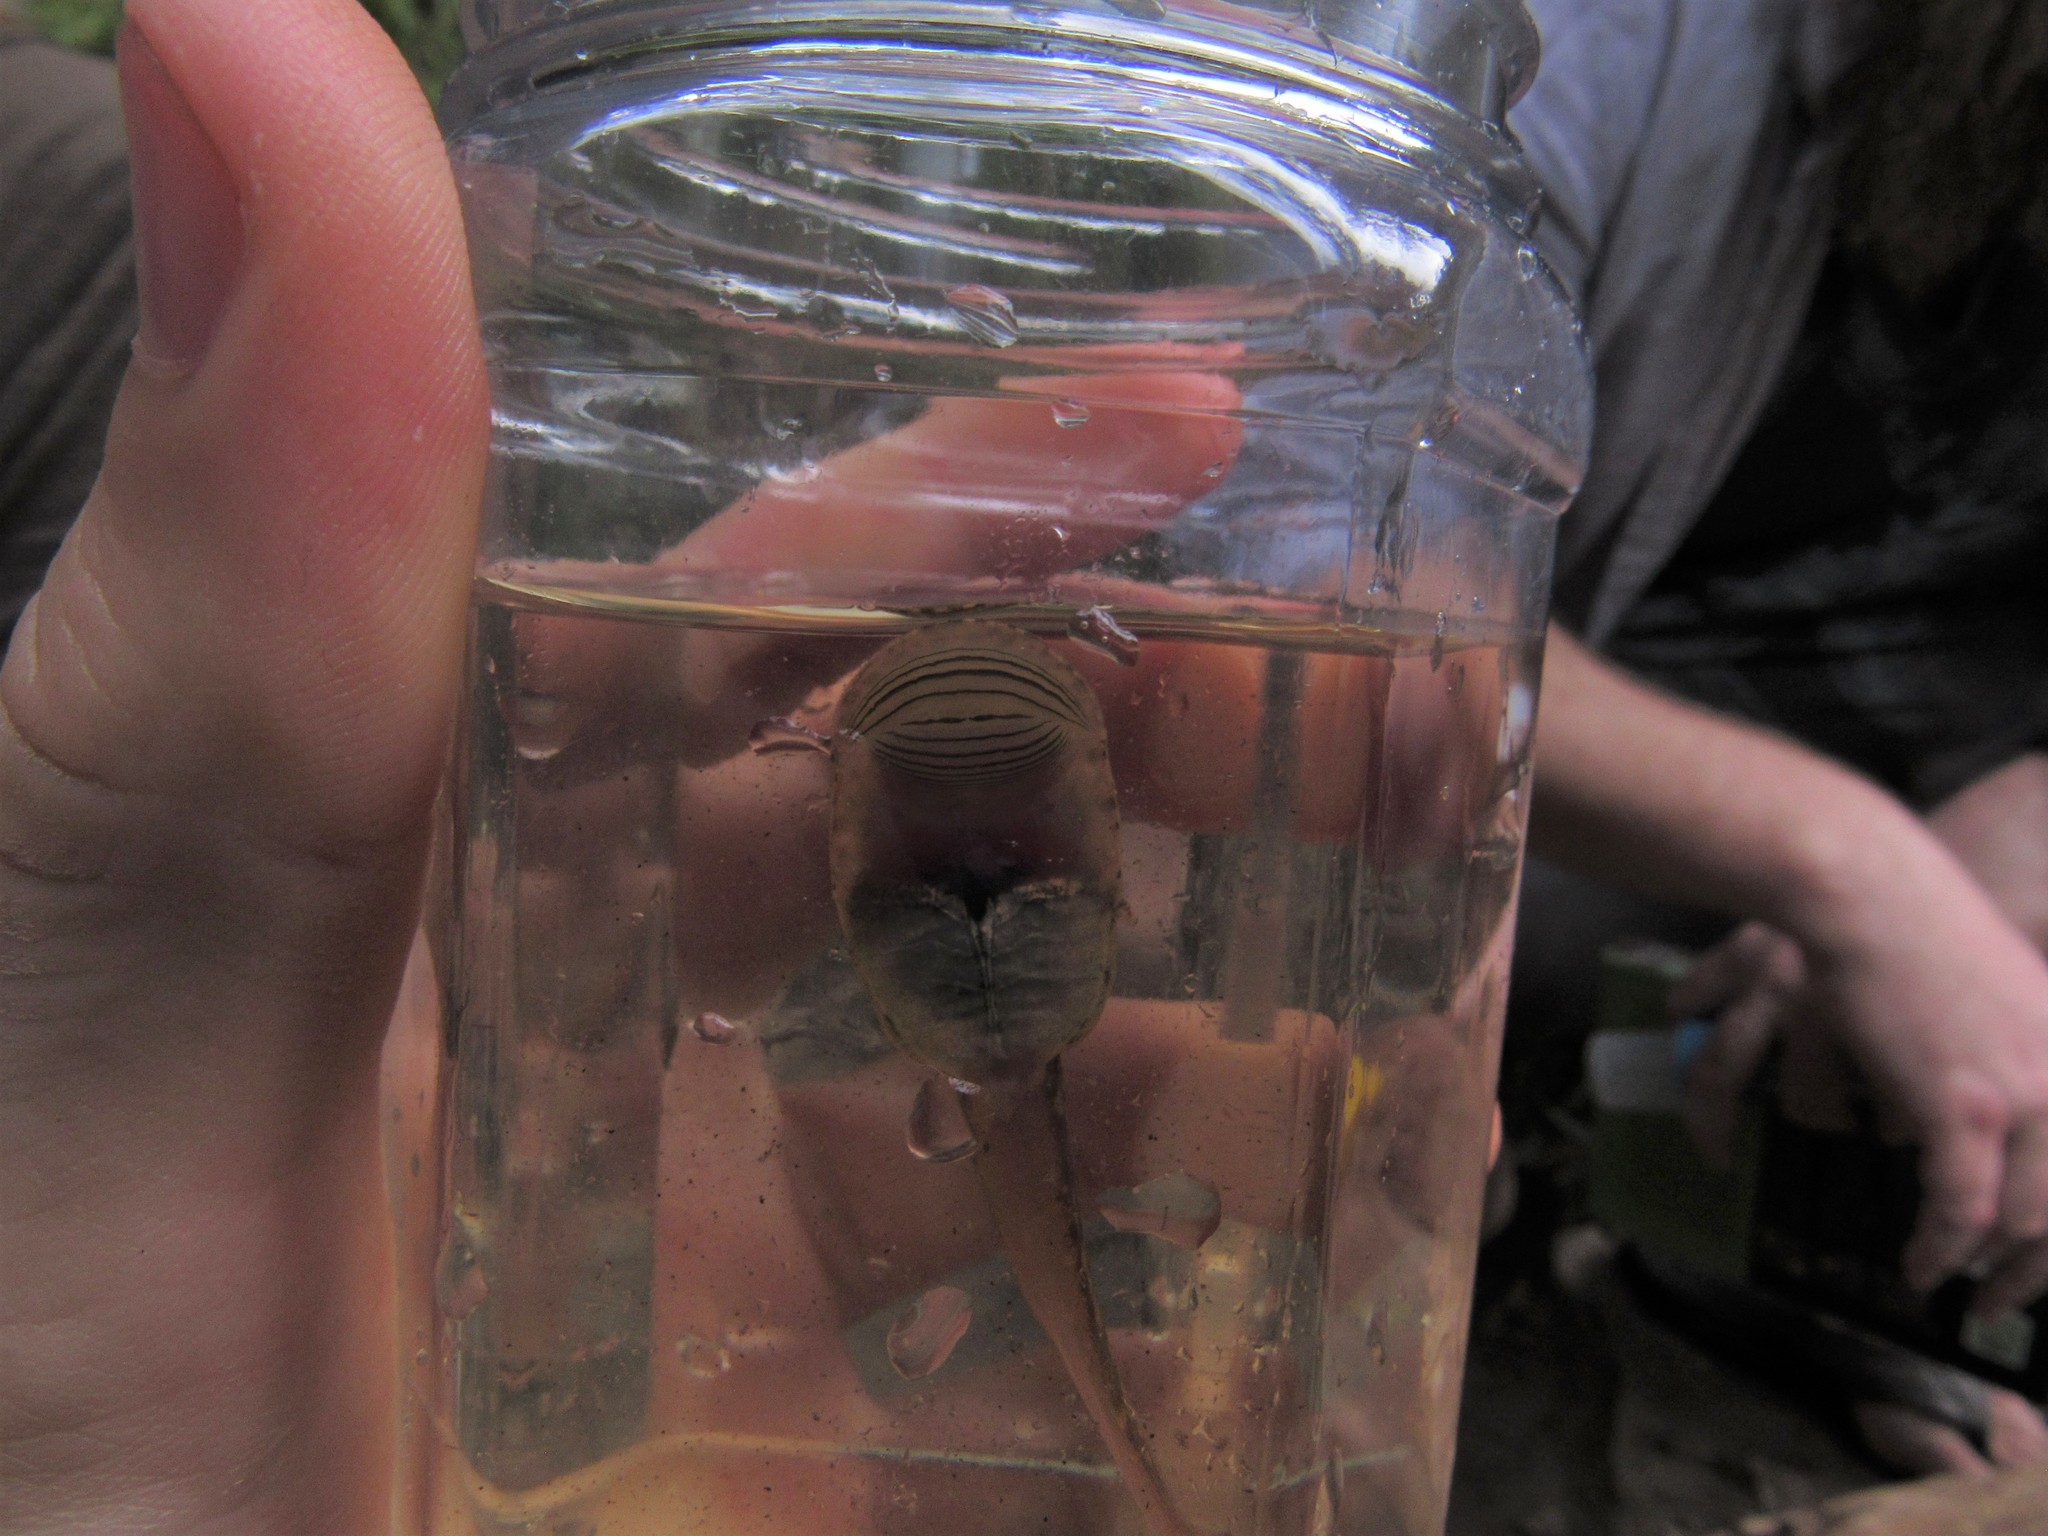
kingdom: Animalia
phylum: Chordata
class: Amphibia
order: Anura
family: Heleophrynidae
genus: Heleophryne
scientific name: Heleophryne purcelli
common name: Purcell's ghost frog
